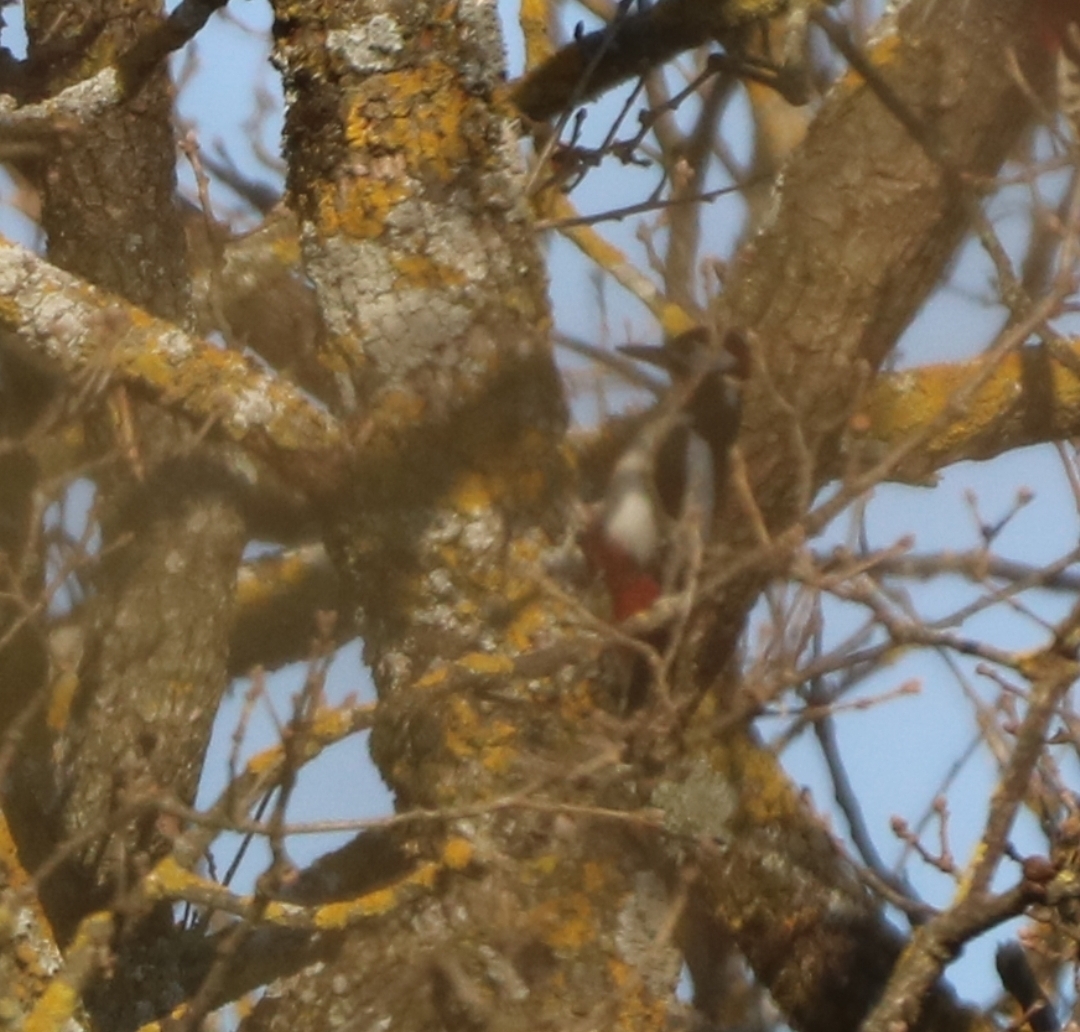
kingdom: Animalia
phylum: Chordata
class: Aves
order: Piciformes
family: Picidae
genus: Dendrocopos
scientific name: Dendrocopos major
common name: Great spotted woodpecker
